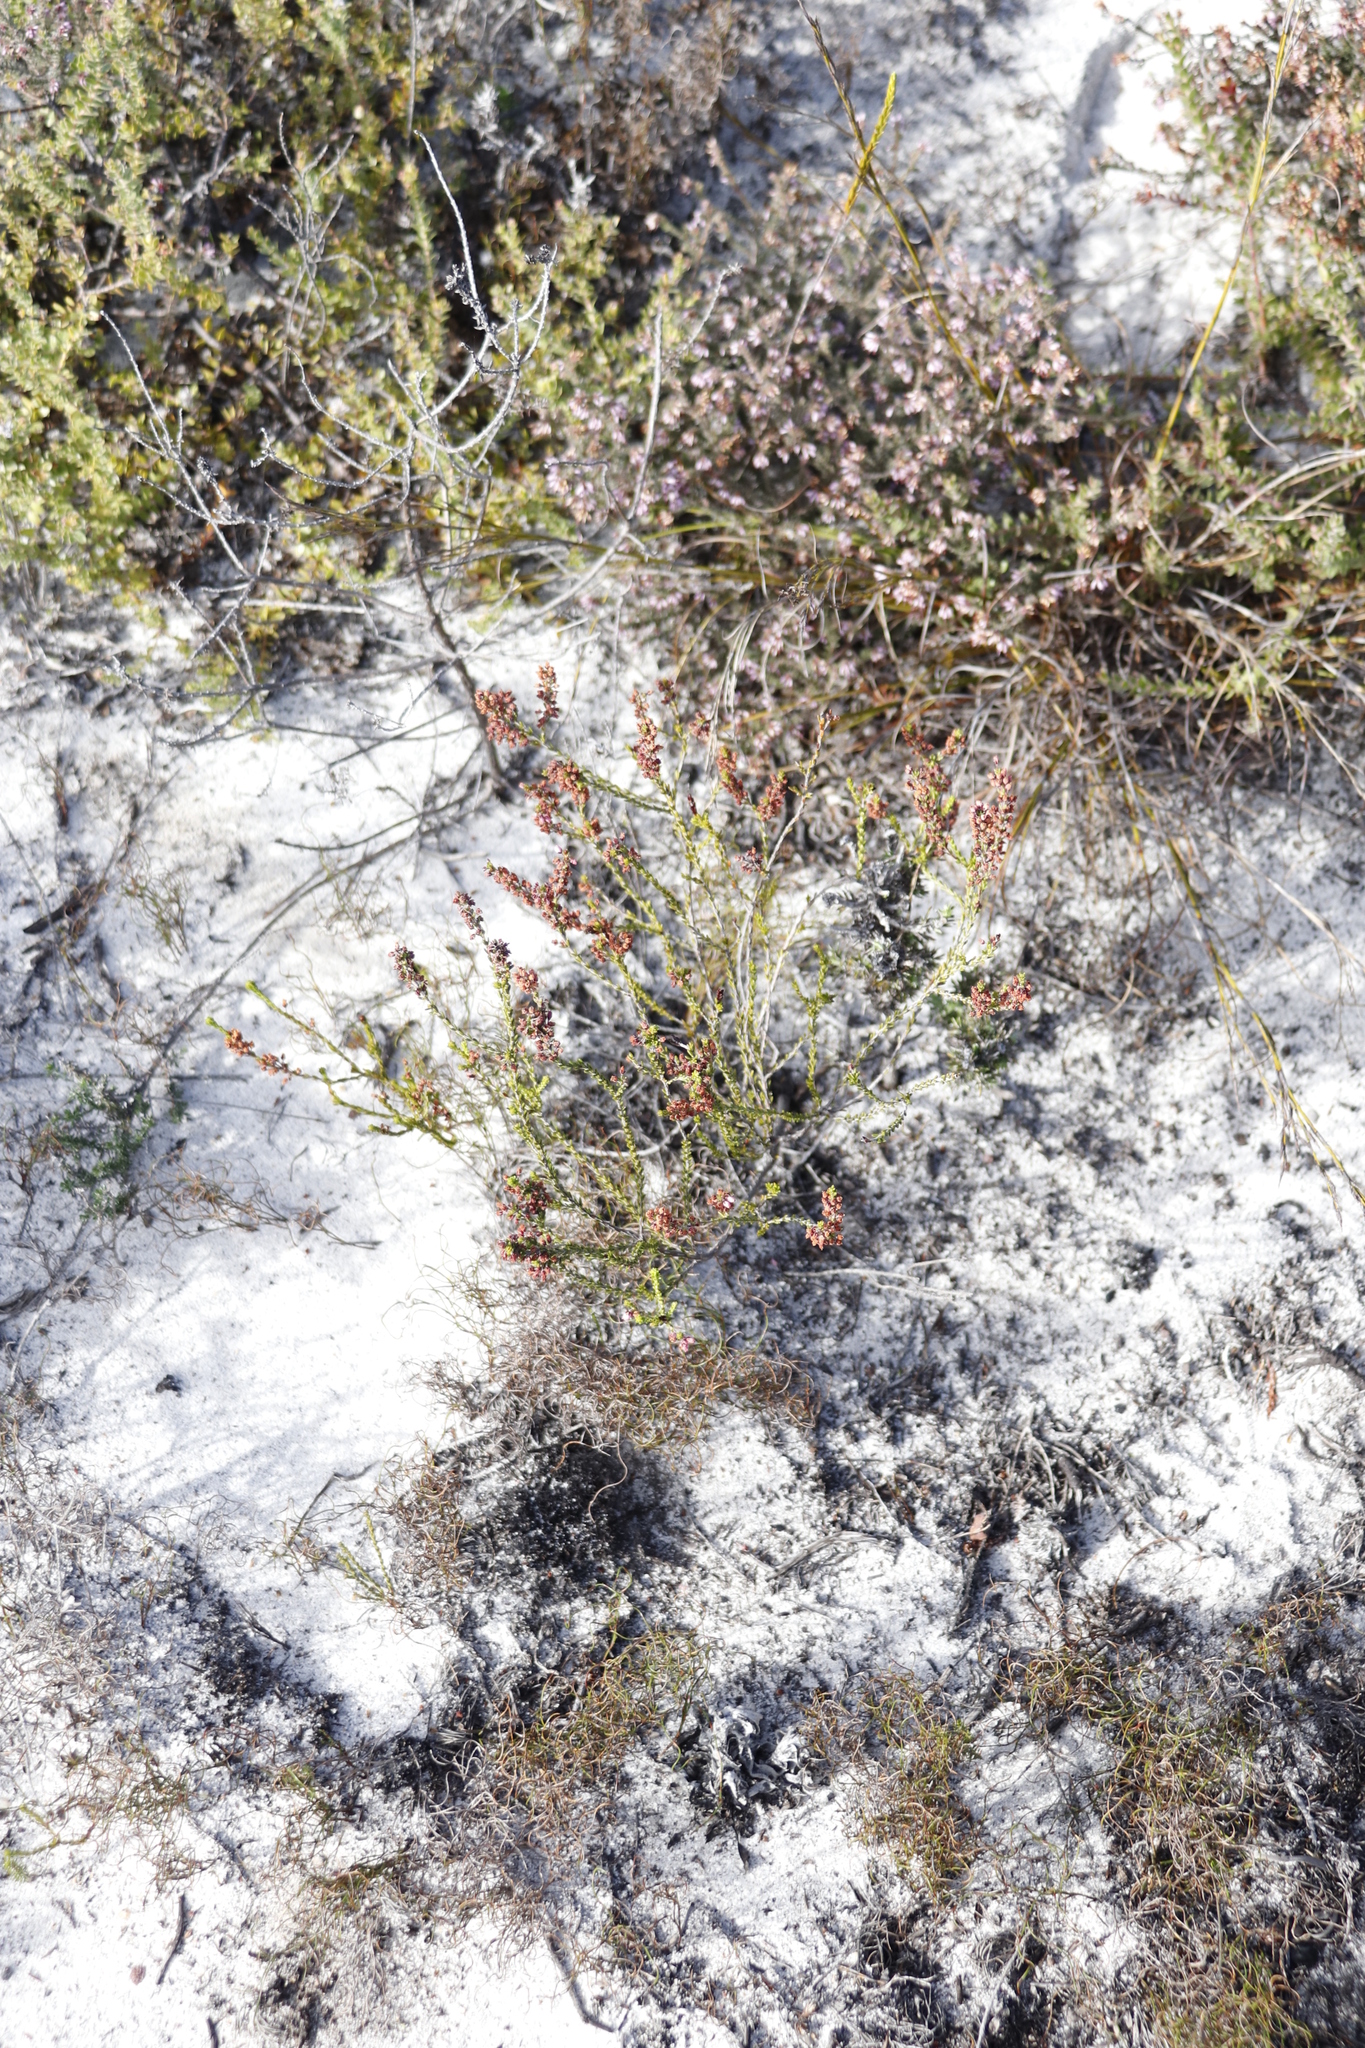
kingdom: Plantae
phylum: Tracheophyta
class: Magnoliopsida
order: Ericales
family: Ericaceae
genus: Erica
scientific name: Erica pulchella
